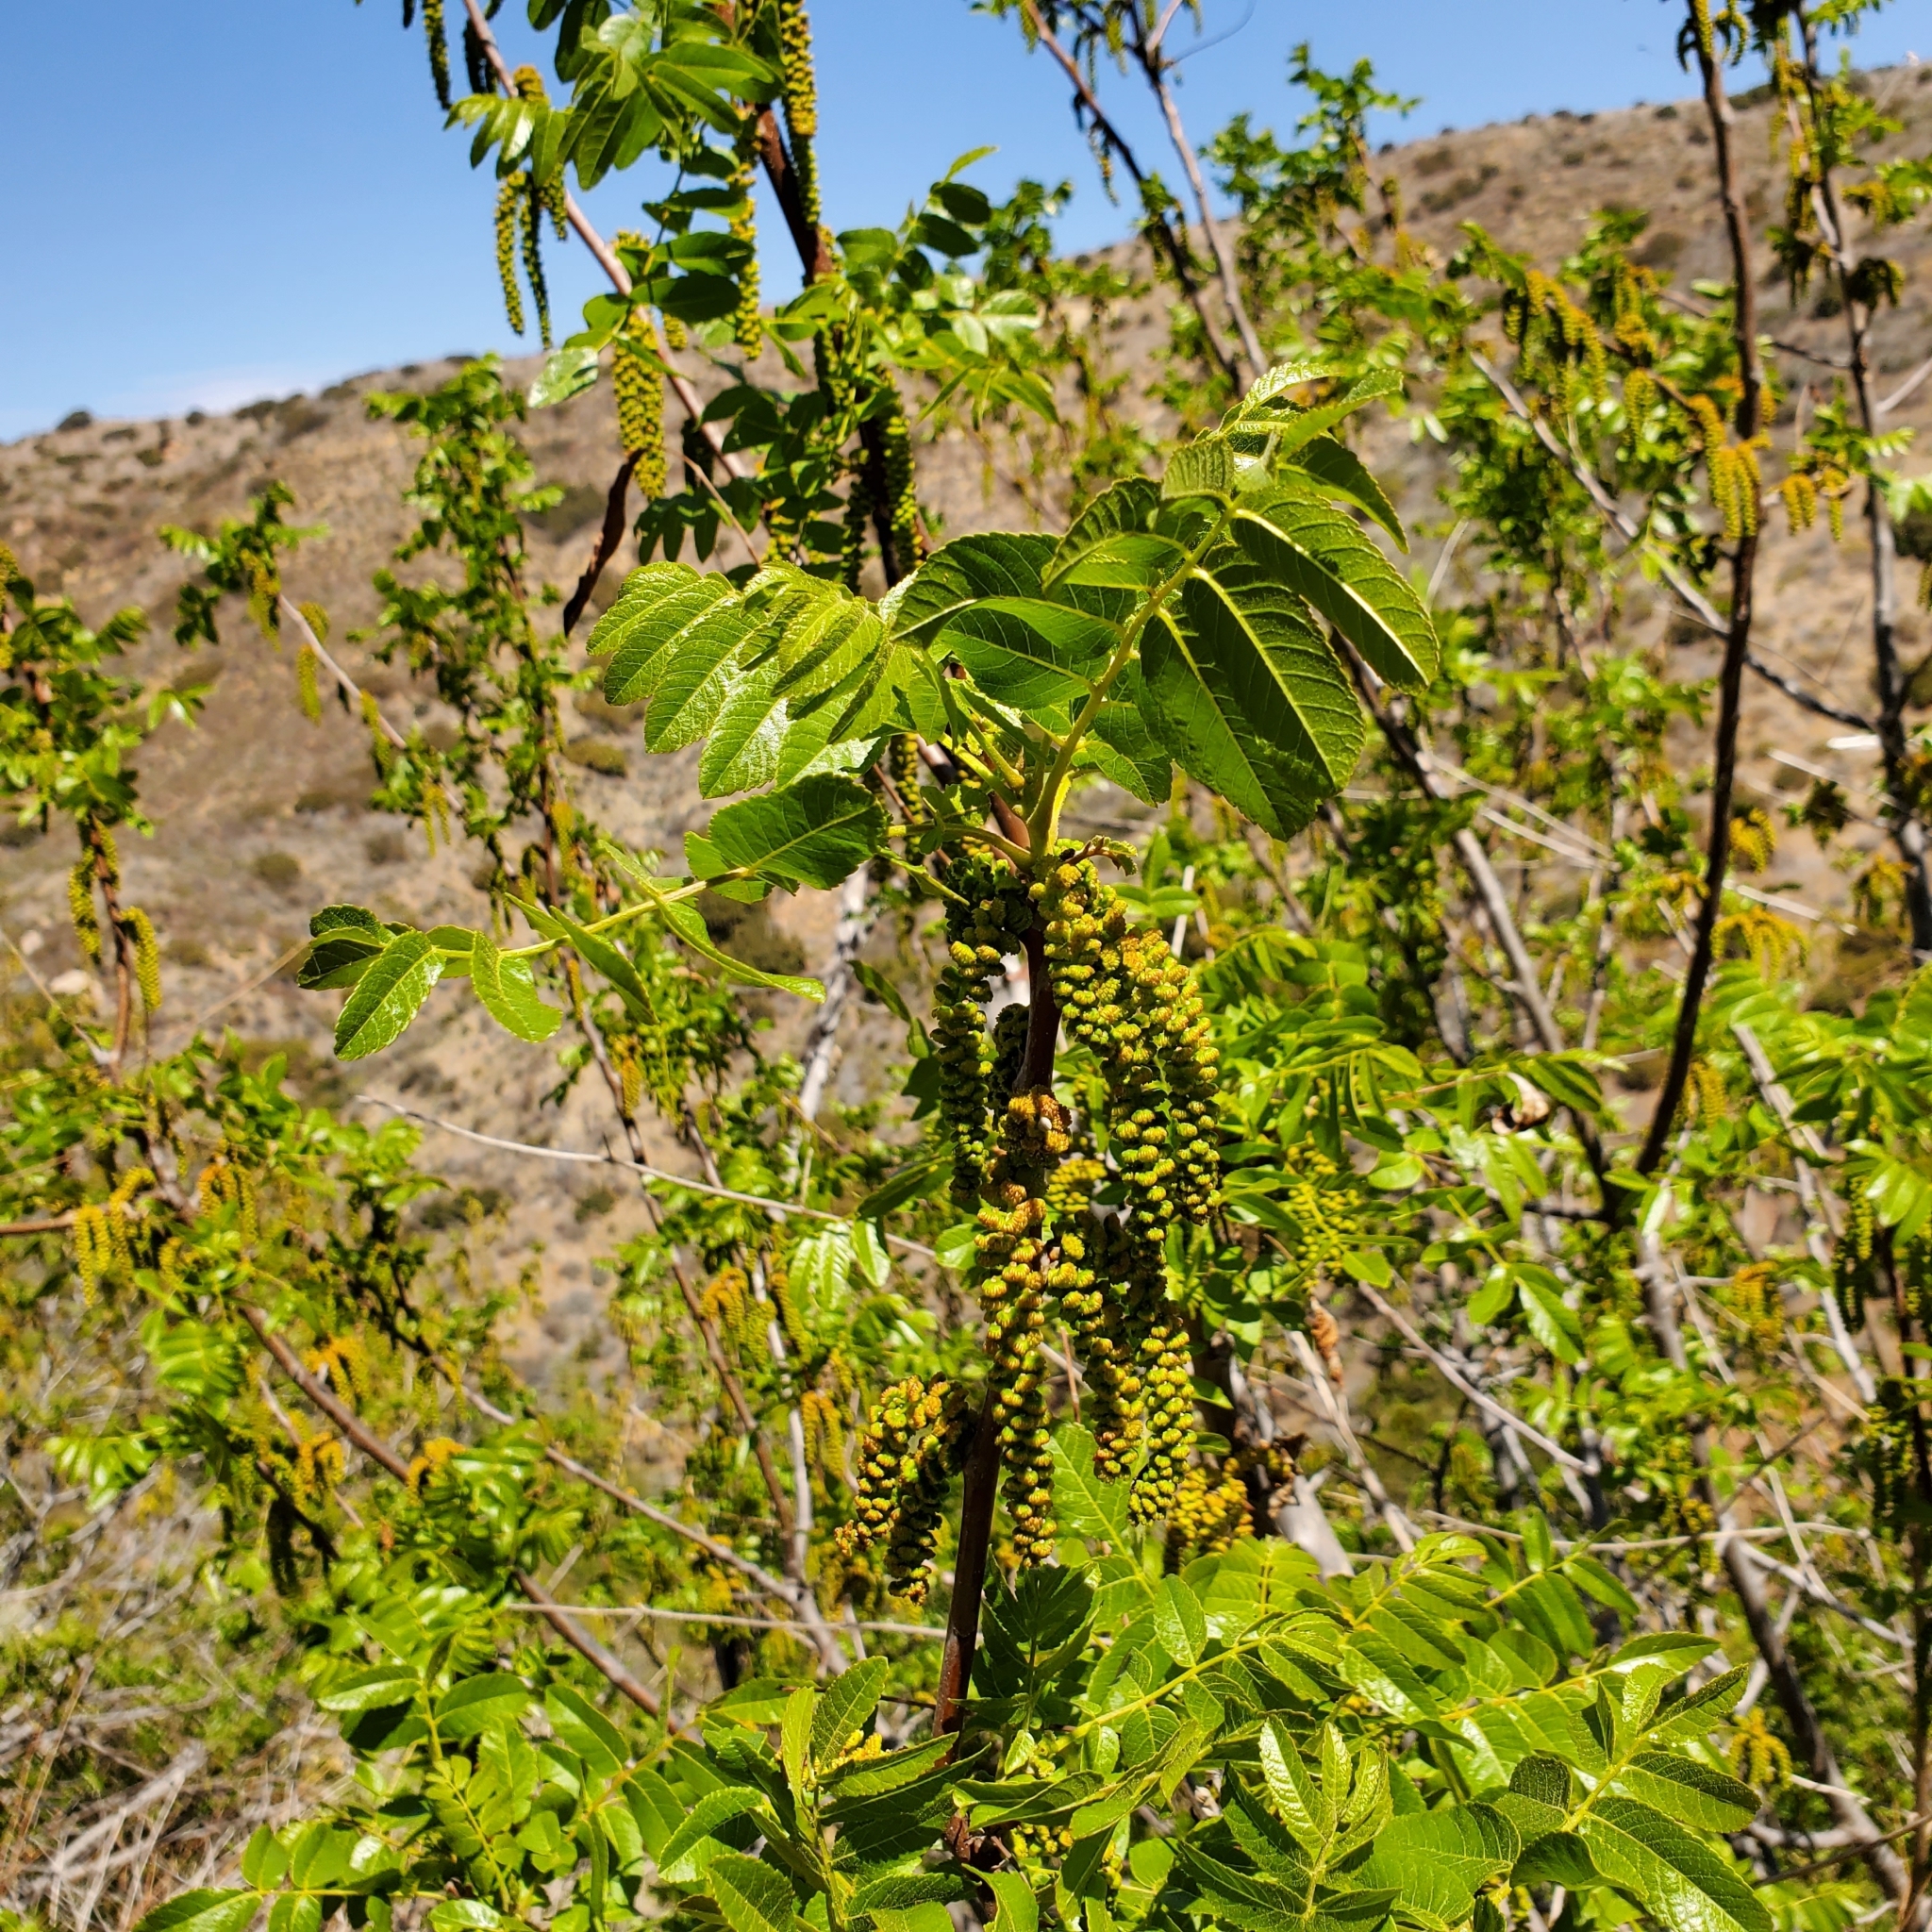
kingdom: Plantae
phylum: Tracheophyta
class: Magnoliopsida
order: Fagales
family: Juglandaceae
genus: Juglans
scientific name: Juglans californica
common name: Southern california black walnut
